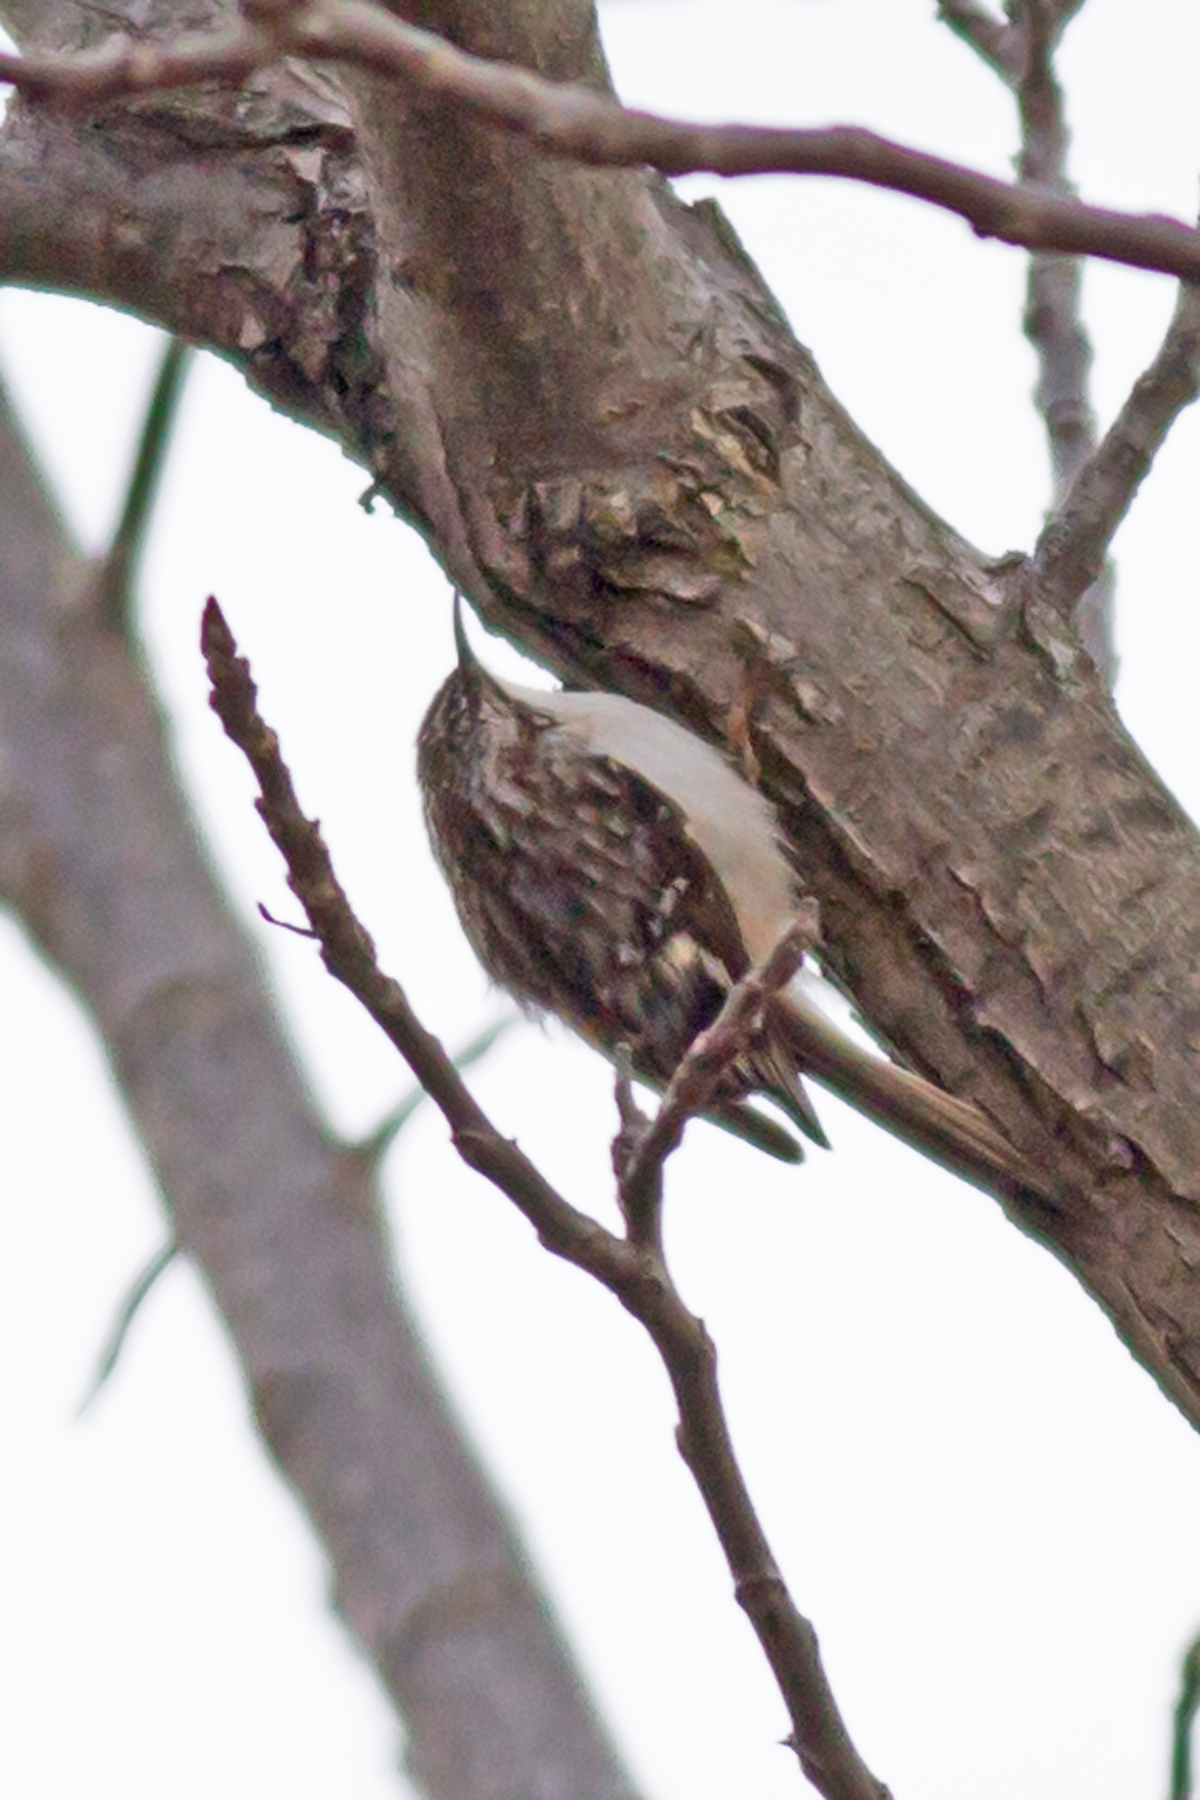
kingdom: Animalia
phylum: Chordata
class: Aves
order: Passeriformes
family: Certhiidae
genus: Certhia
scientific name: Certhia americana
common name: Brown creeper
